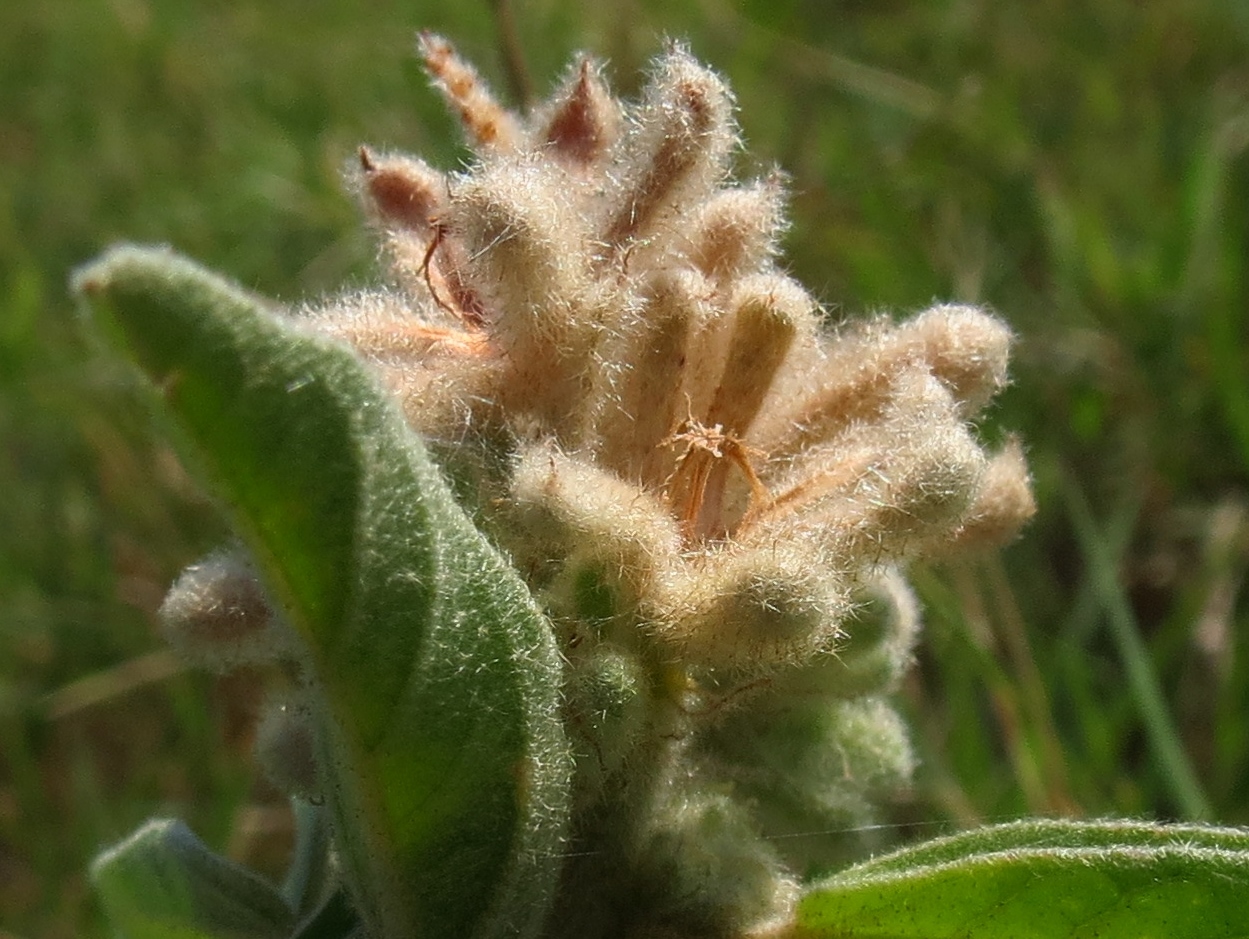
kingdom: Plantae
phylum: Tracheophyta
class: Magnoliopsida
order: Malpighiales
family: Euphorbiaceae
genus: Croton
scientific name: Croton lindheimeri
